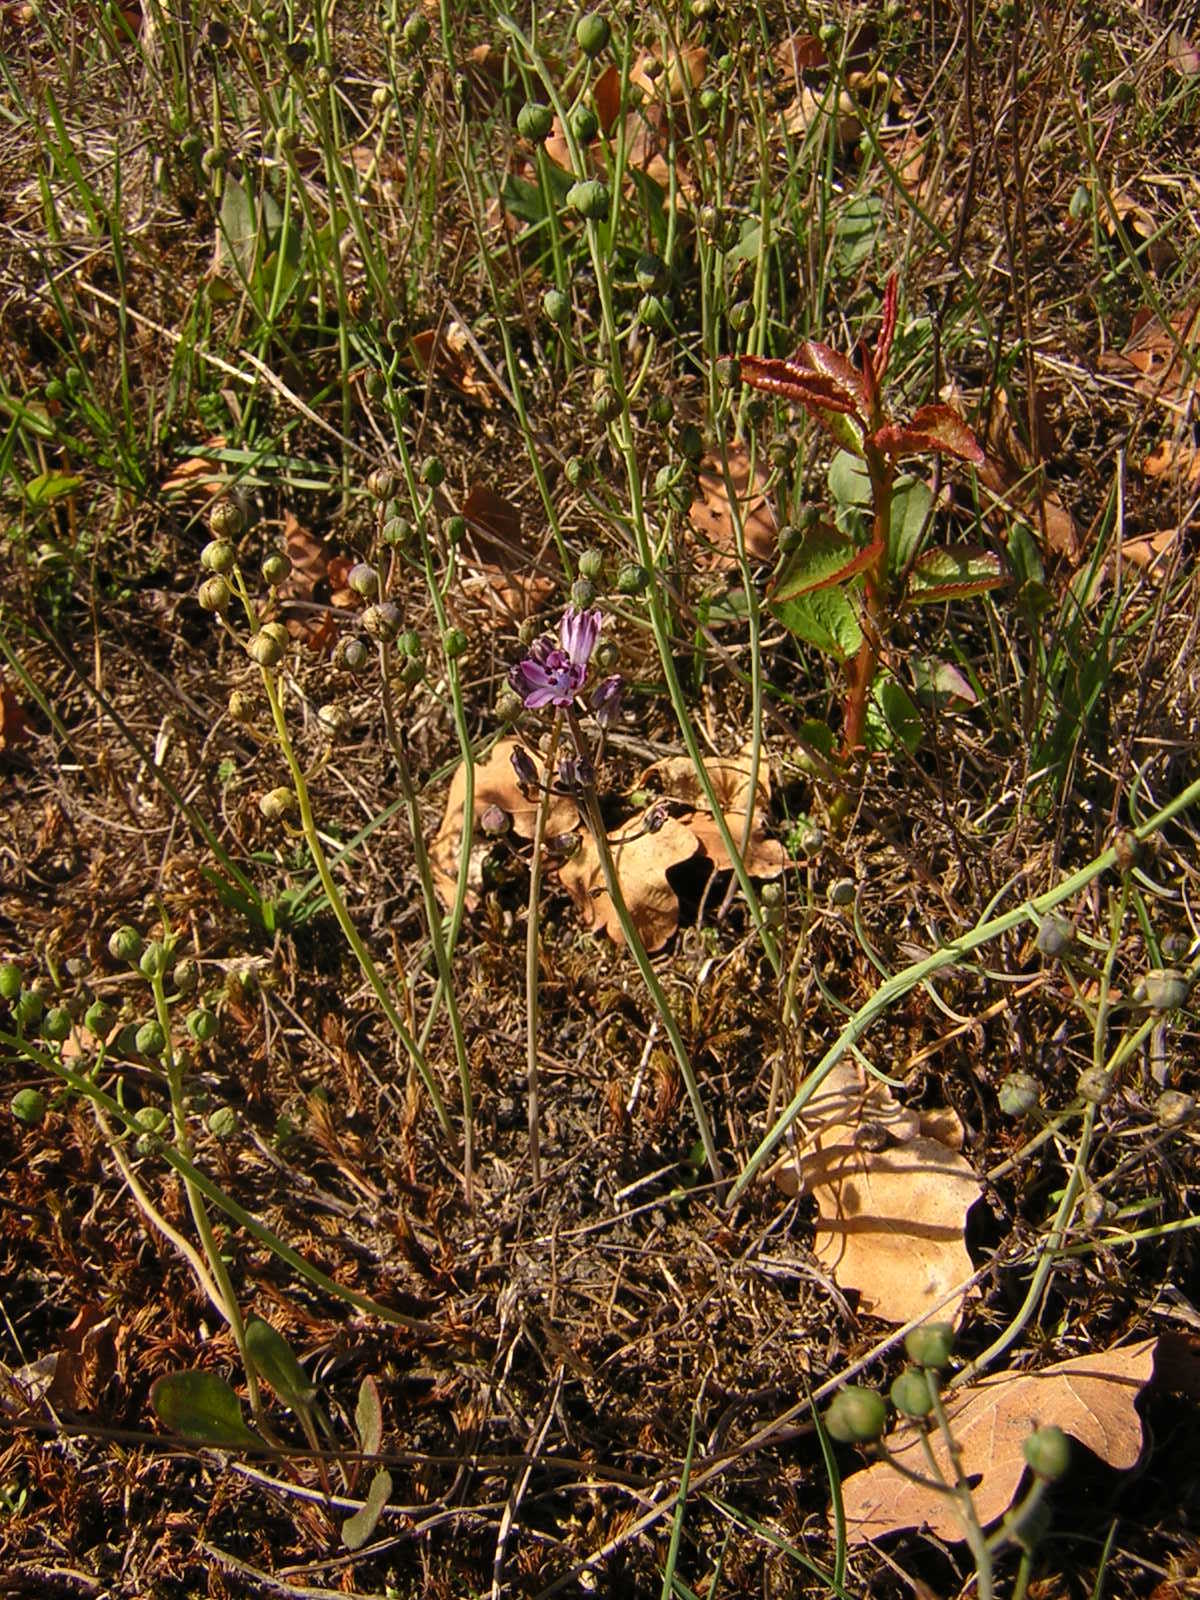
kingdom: Plantae
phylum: Tracheophyta
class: Liliopsida
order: Asparagales
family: Asparagaceae
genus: Prospero
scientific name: Prospero autumnale
